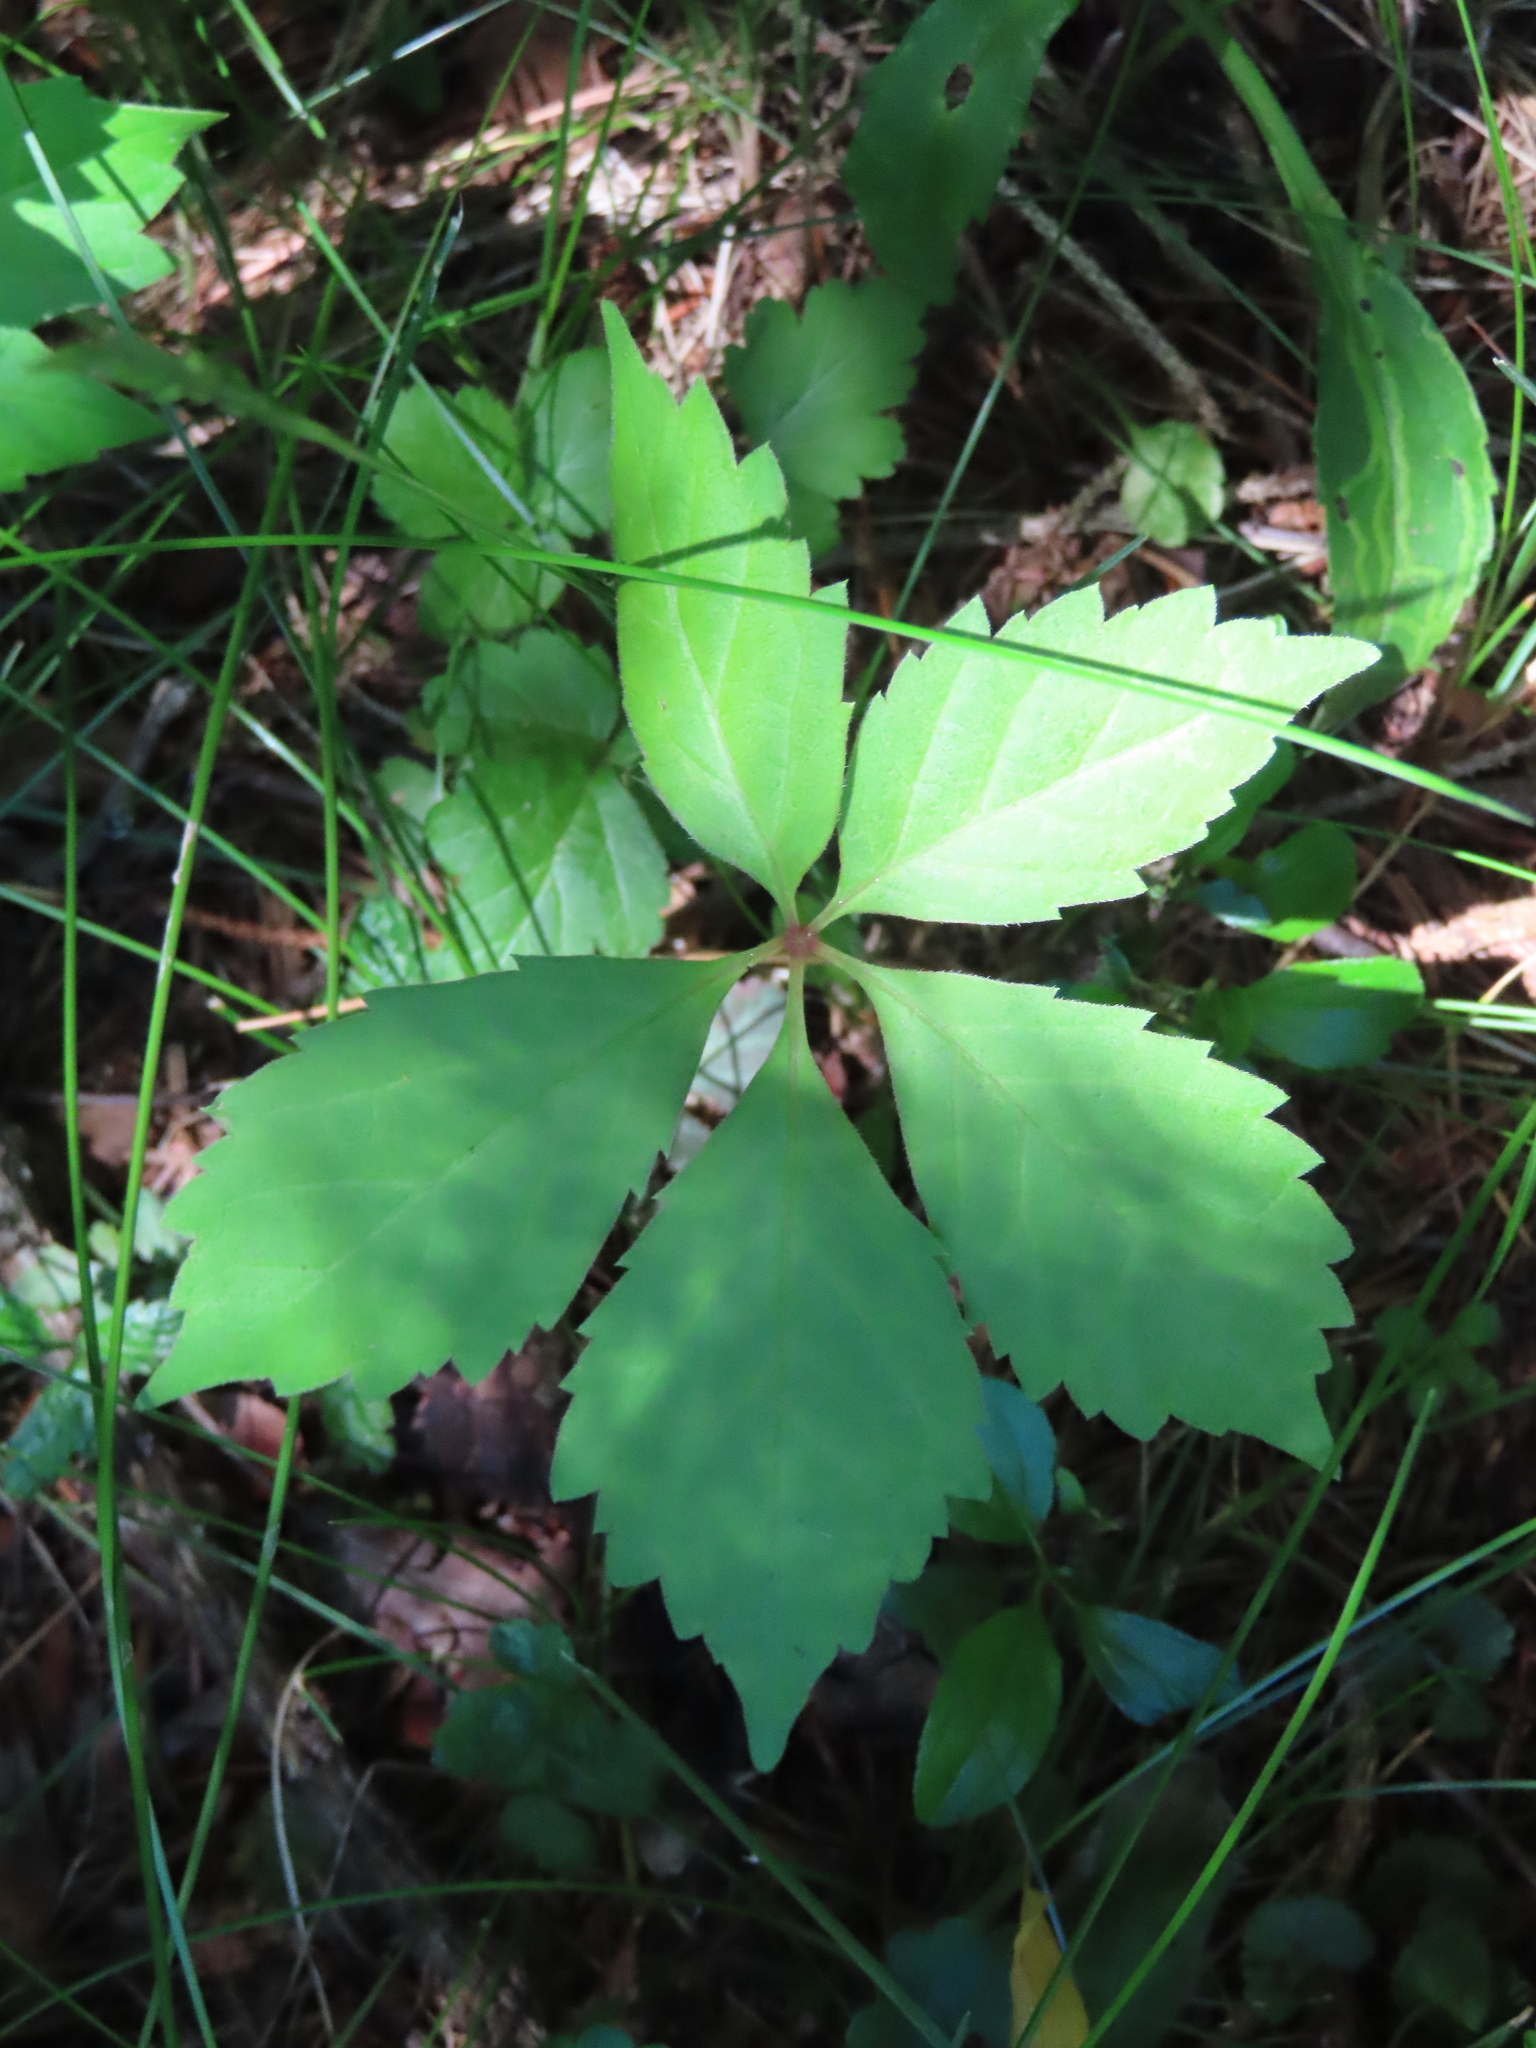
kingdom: Plantae
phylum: Tracheophyta
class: Magnoliopsida
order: Vitales
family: Vitaceae
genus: Parthenocissus
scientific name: Parthenocissus quinquefolia
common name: Virginia-creeper
